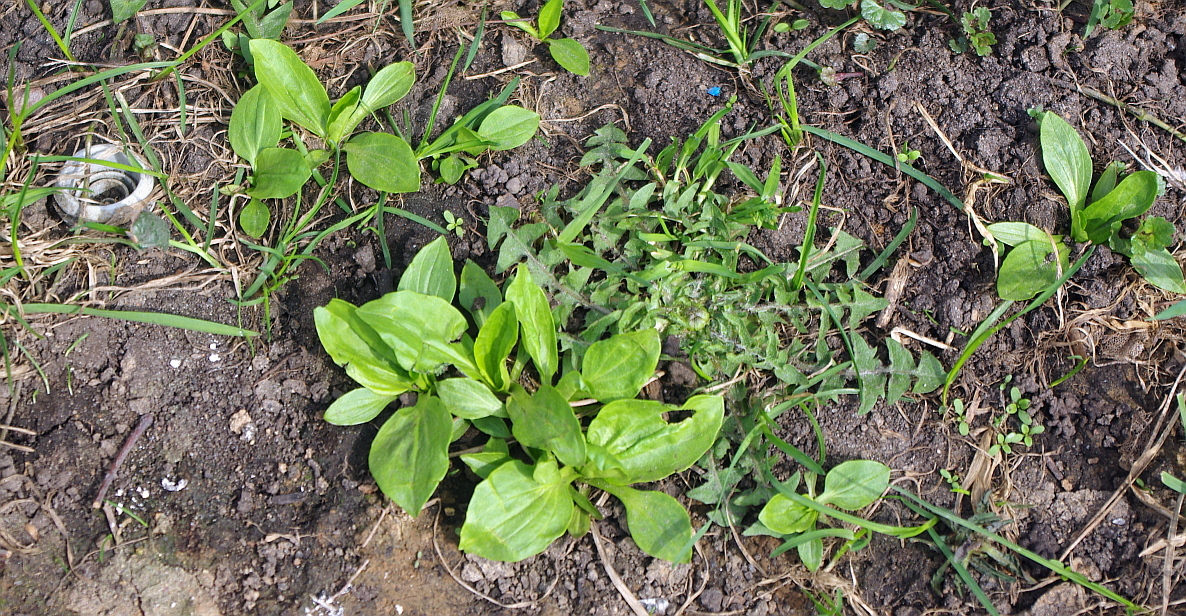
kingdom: Plantae
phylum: Tracheophyta
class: Magnoliopsida
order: Lamiales
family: Plantaginaceae
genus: Plantago
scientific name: Plantago major
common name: Common plantain
